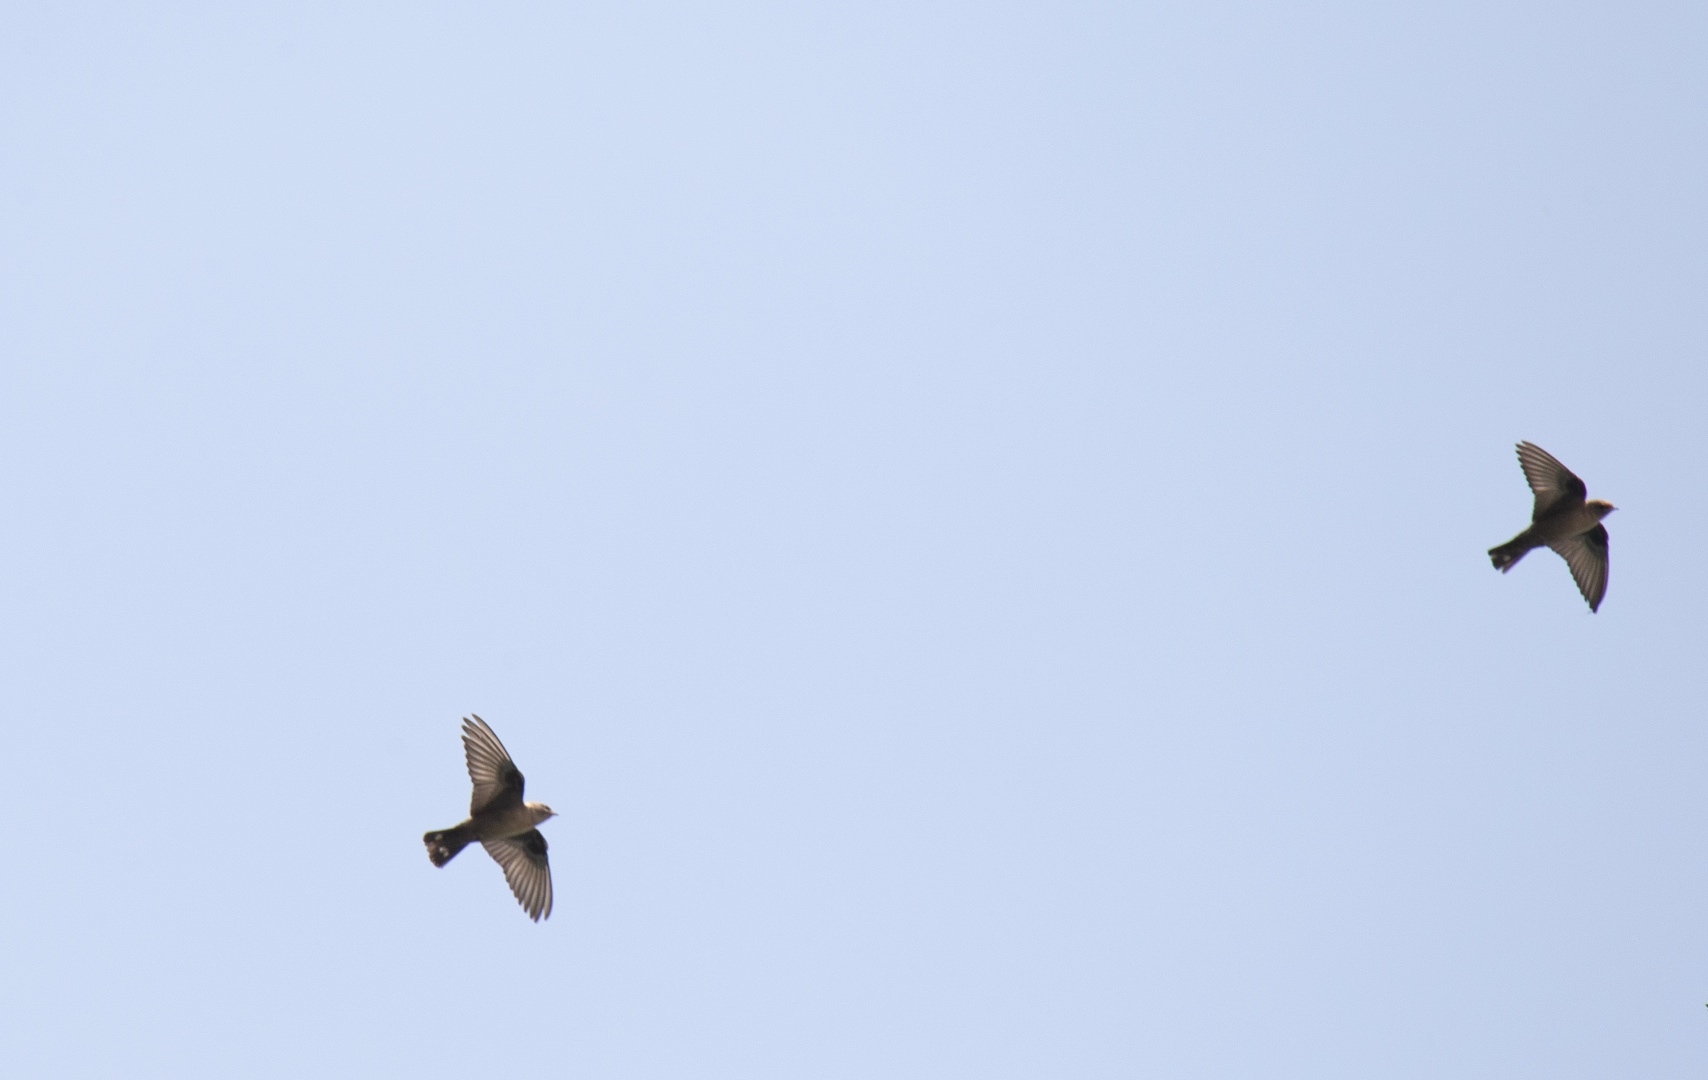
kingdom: Animalia
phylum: Chordata
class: Aves
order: Passeriformes
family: Hirundinidae
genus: Ptyonoprogne
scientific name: Ptyonoprogne rupestris
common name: Eurasian crag martin
